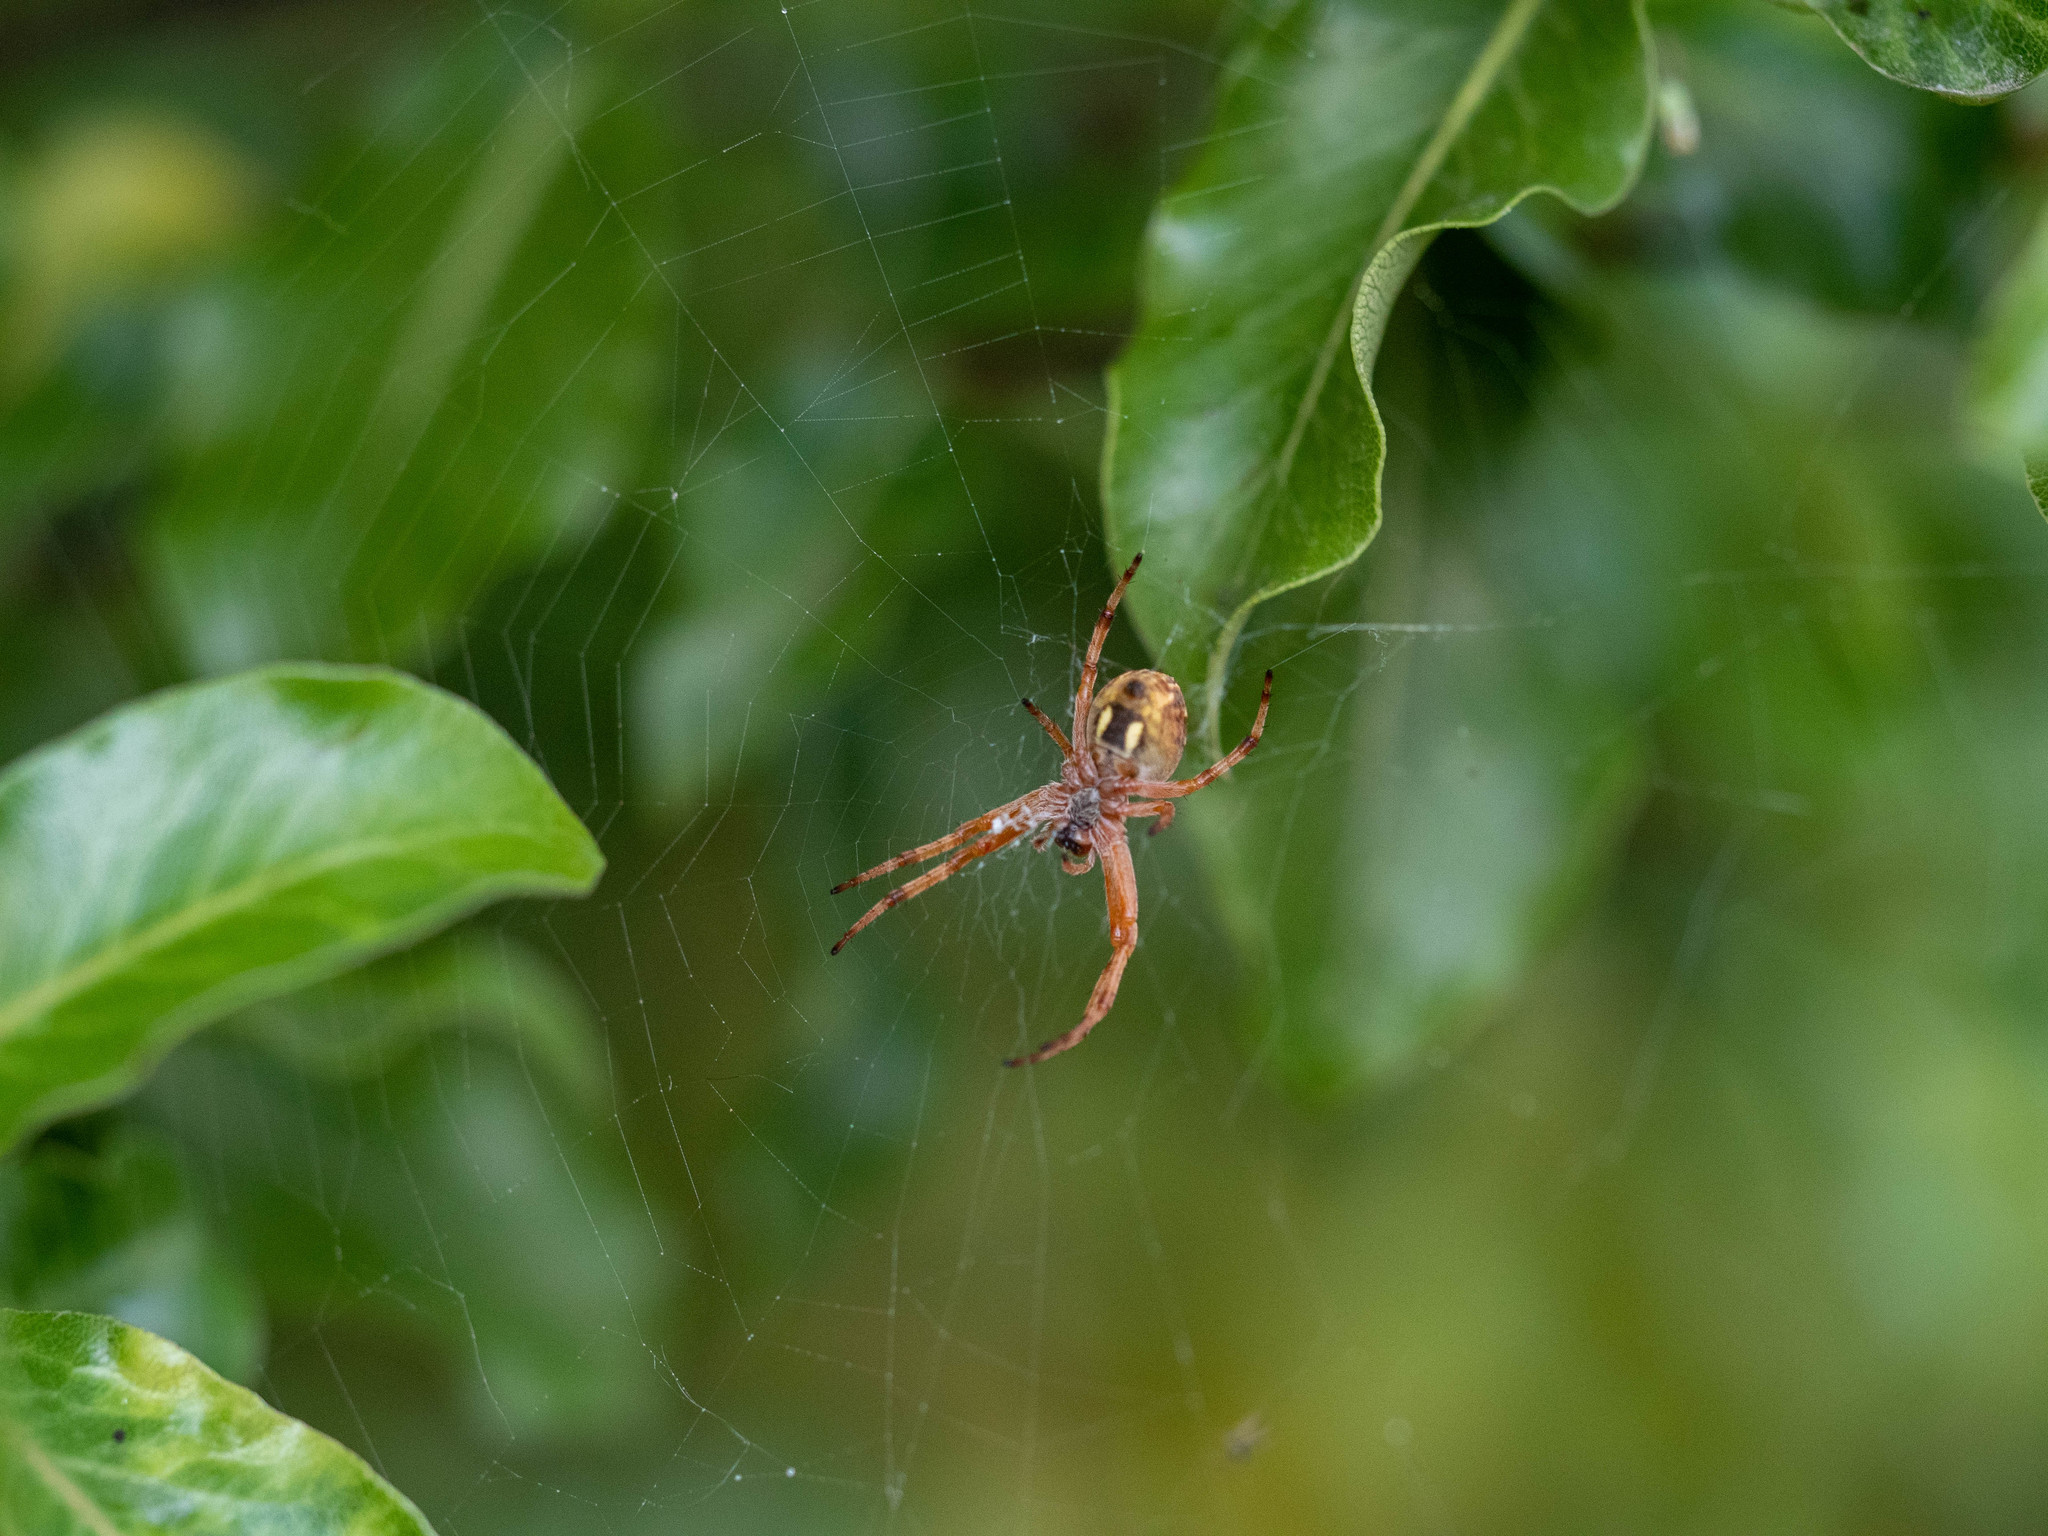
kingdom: Animalia
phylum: Arthropoda
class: Arachnida
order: Araneae
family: Araneidae
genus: Salsa
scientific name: Salsa fuliginata
